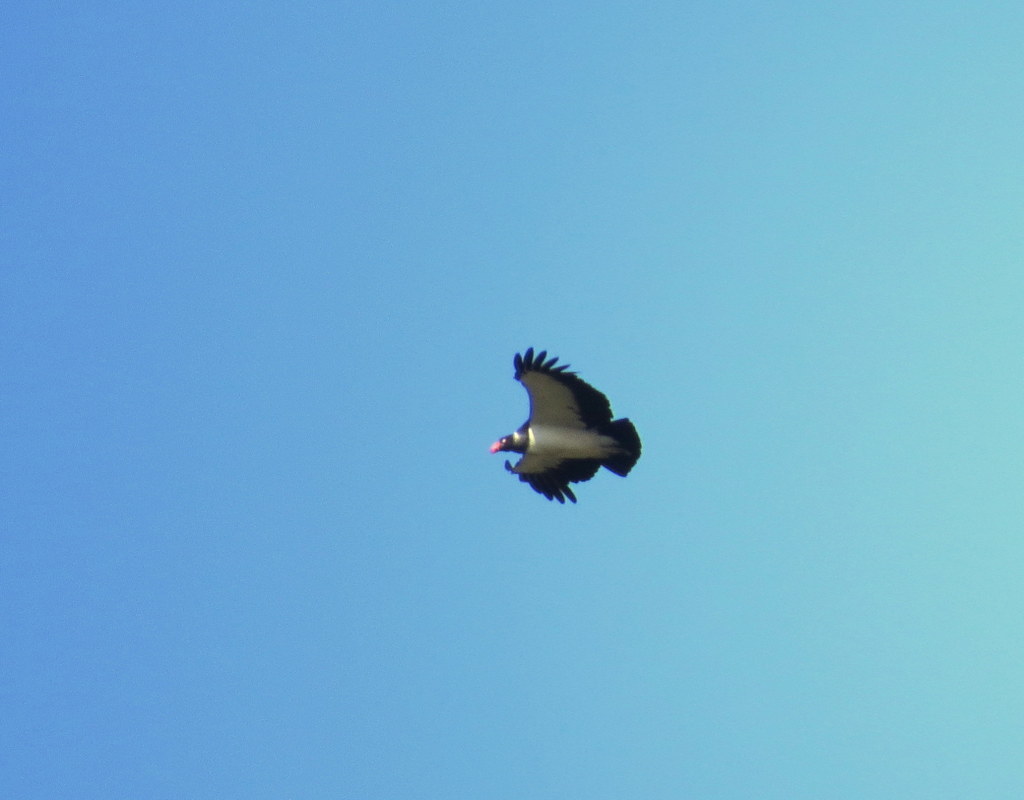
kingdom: Animalia
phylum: Chordata
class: Aves
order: Accipitriformes
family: Cathartidae
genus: Sarcoramphus
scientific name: Sarcoramphus papa
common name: King vulture
